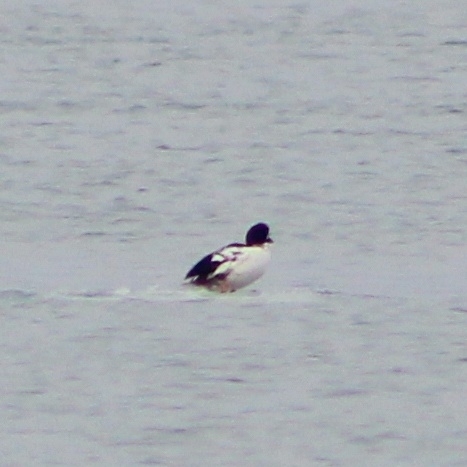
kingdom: Animalia
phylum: Chordata
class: Aves
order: Anseriformes
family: Anatidae
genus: Bucephala
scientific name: Bucephala clangula
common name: Common goldeneye
